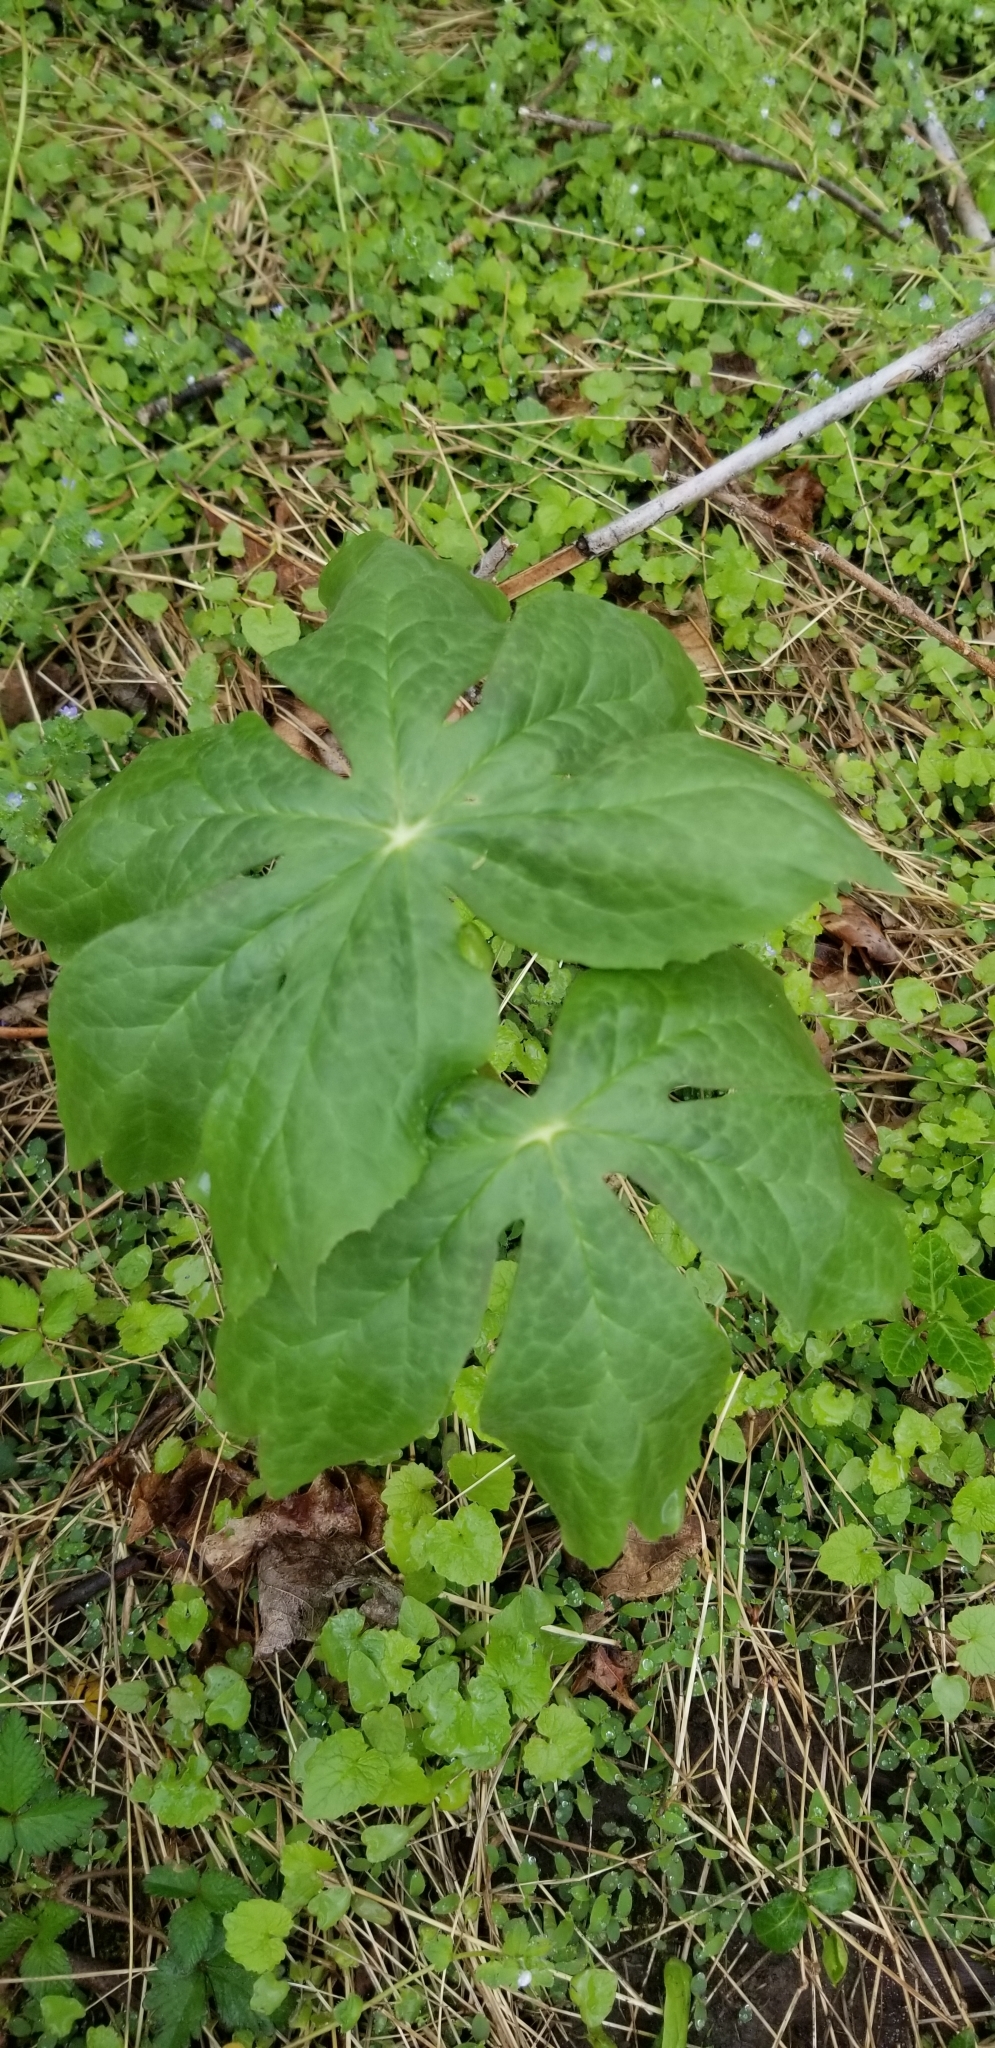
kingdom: Plantae
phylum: Tracheophyta
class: Magnoliopsida
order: Ranunculales
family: Berberidaceae
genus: Podophyllum
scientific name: Podophyllum peltatum
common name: Wild mandrake
